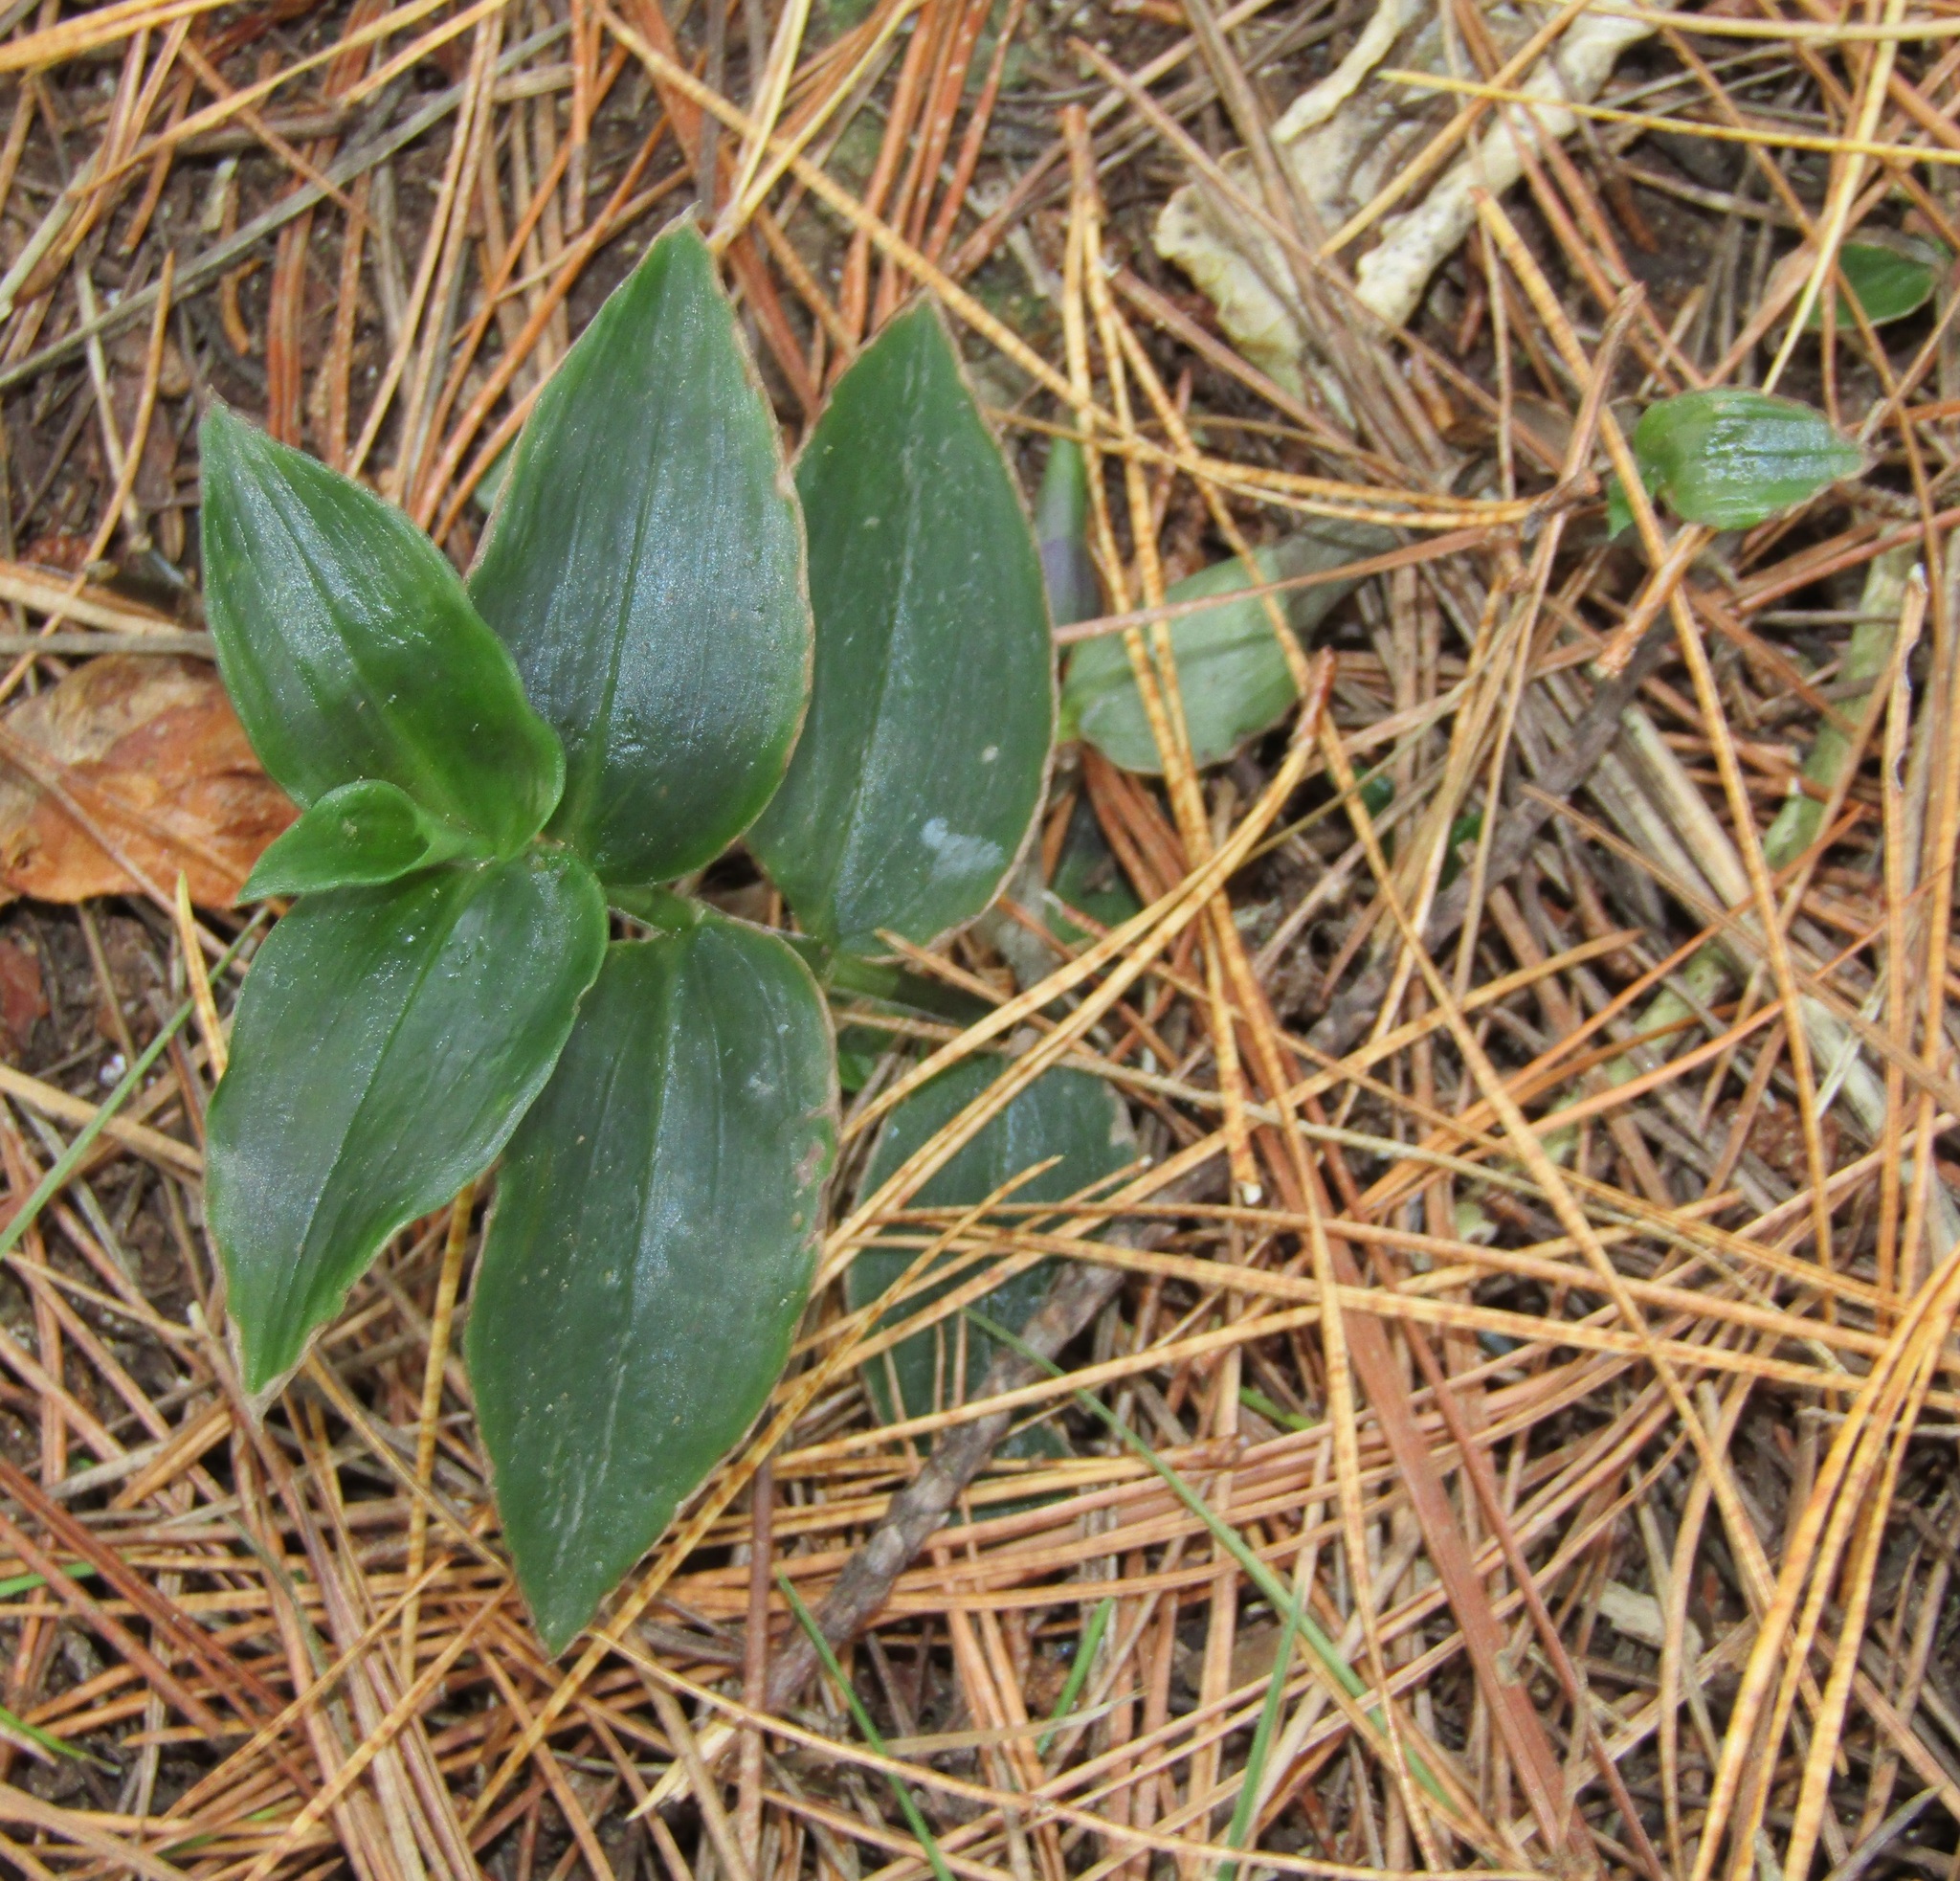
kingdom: Plantae
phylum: Tracheophyta
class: Liliopsida
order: Commelinales
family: Commelinaceae
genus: Tradescantia
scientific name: Tradescantia fluminensis
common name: Wandering-jew
